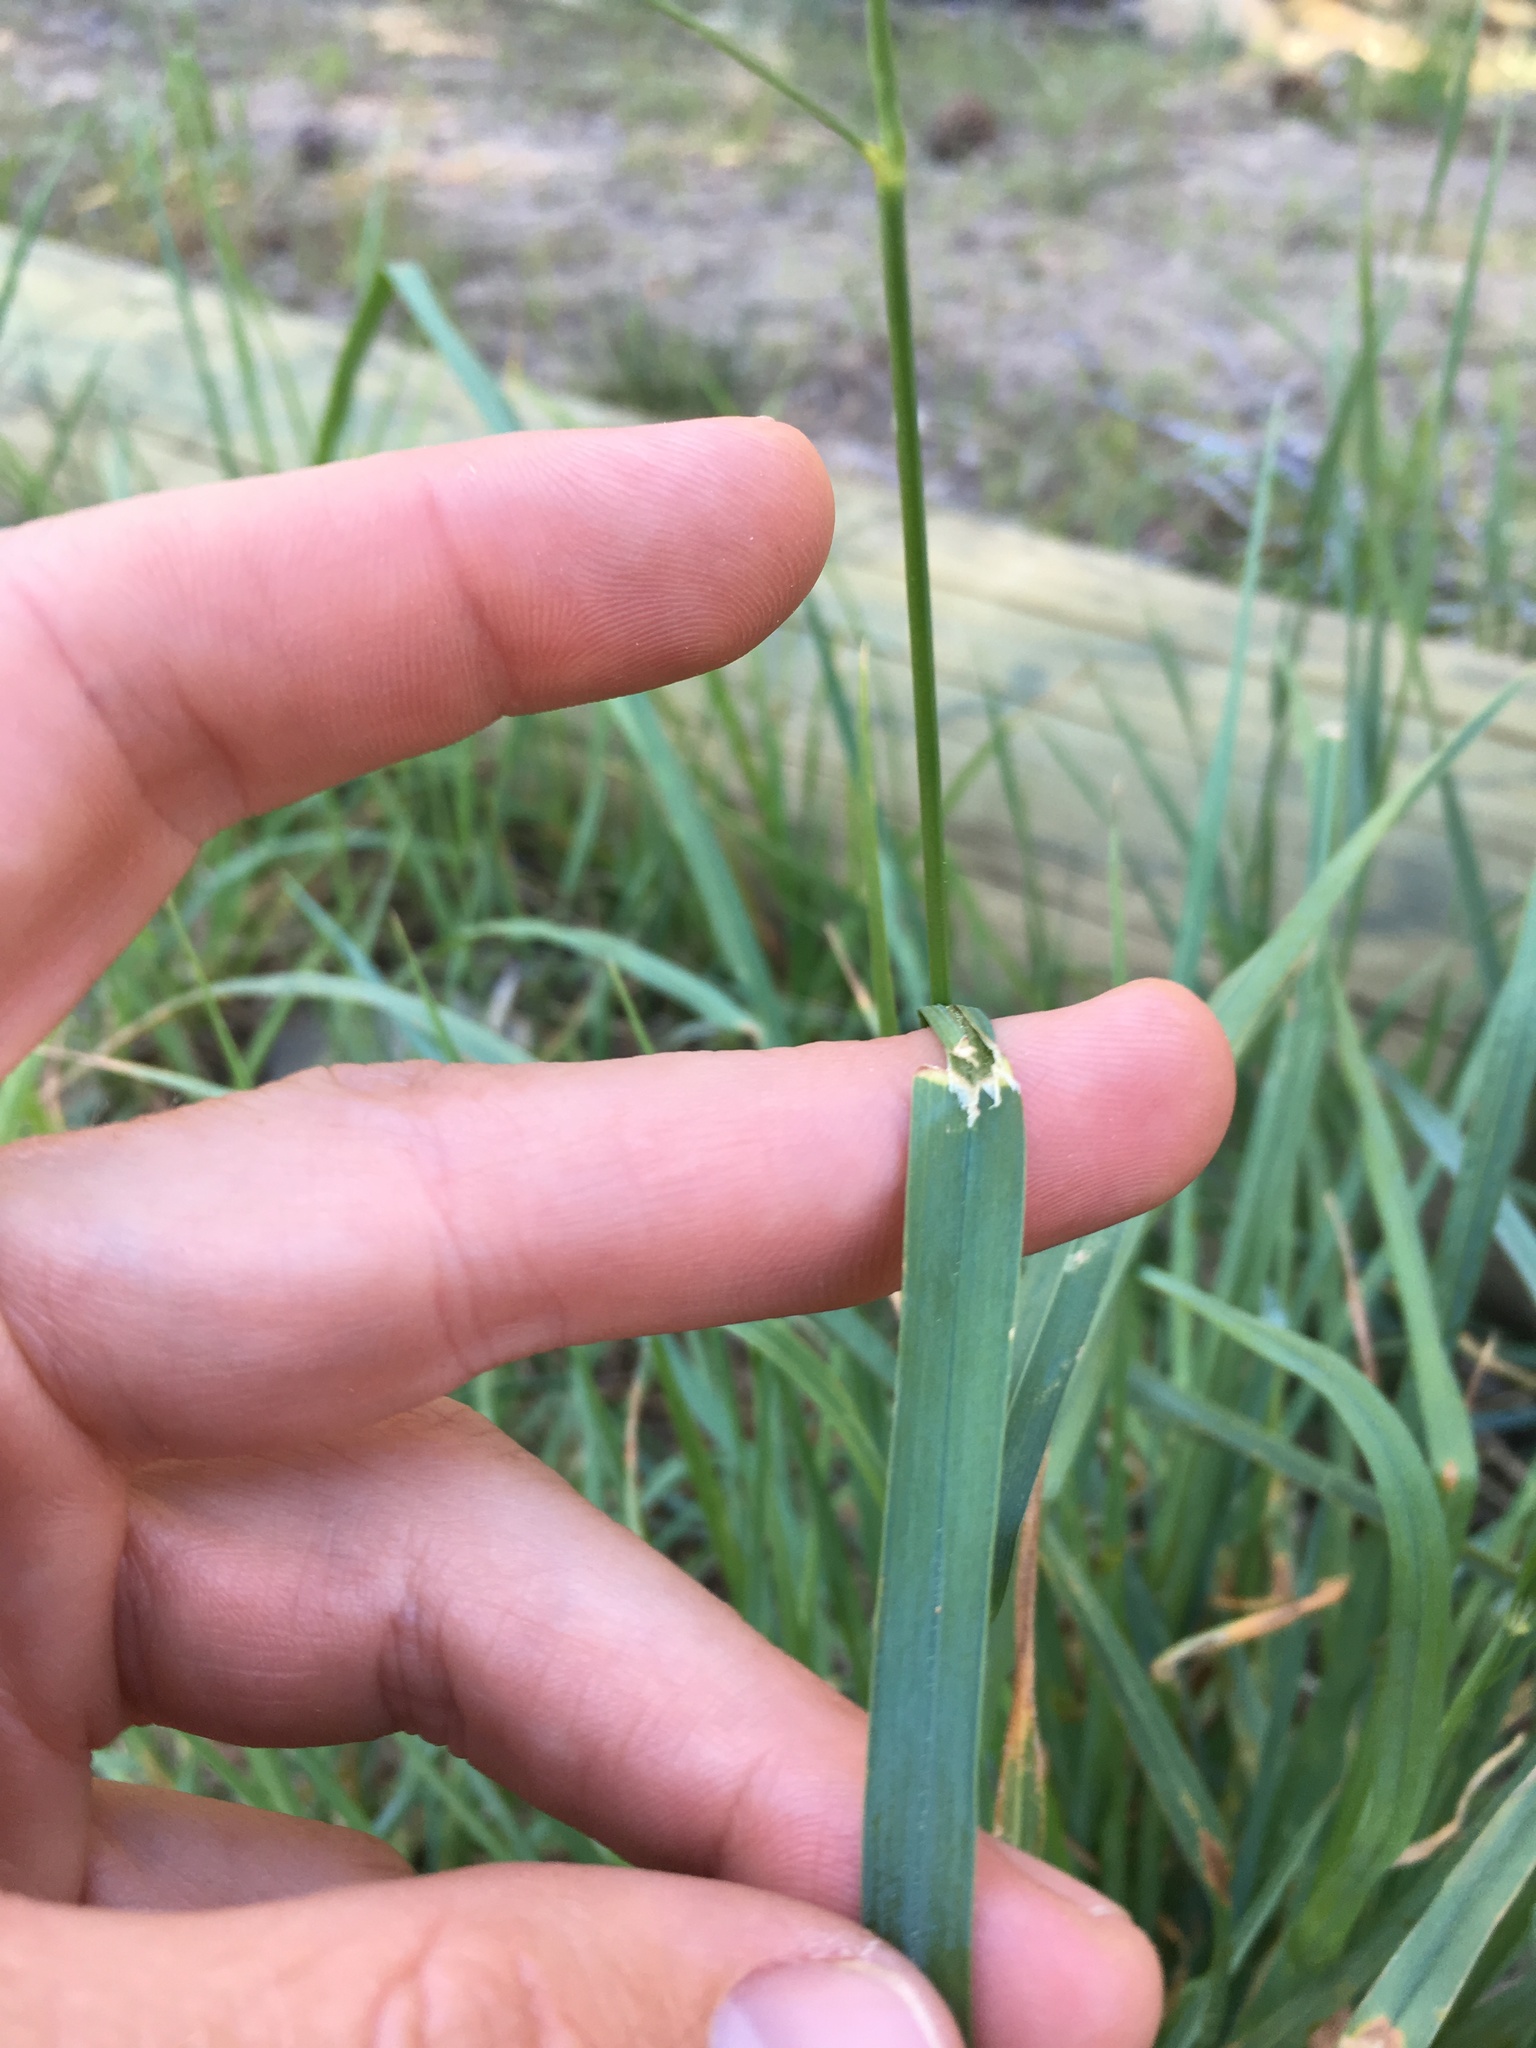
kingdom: Plantae
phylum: Tracheophyta
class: Liliopsida
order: Poales
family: Poaceae
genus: Dactylis
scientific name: Dactylis glomerata
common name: Orchardgrass
